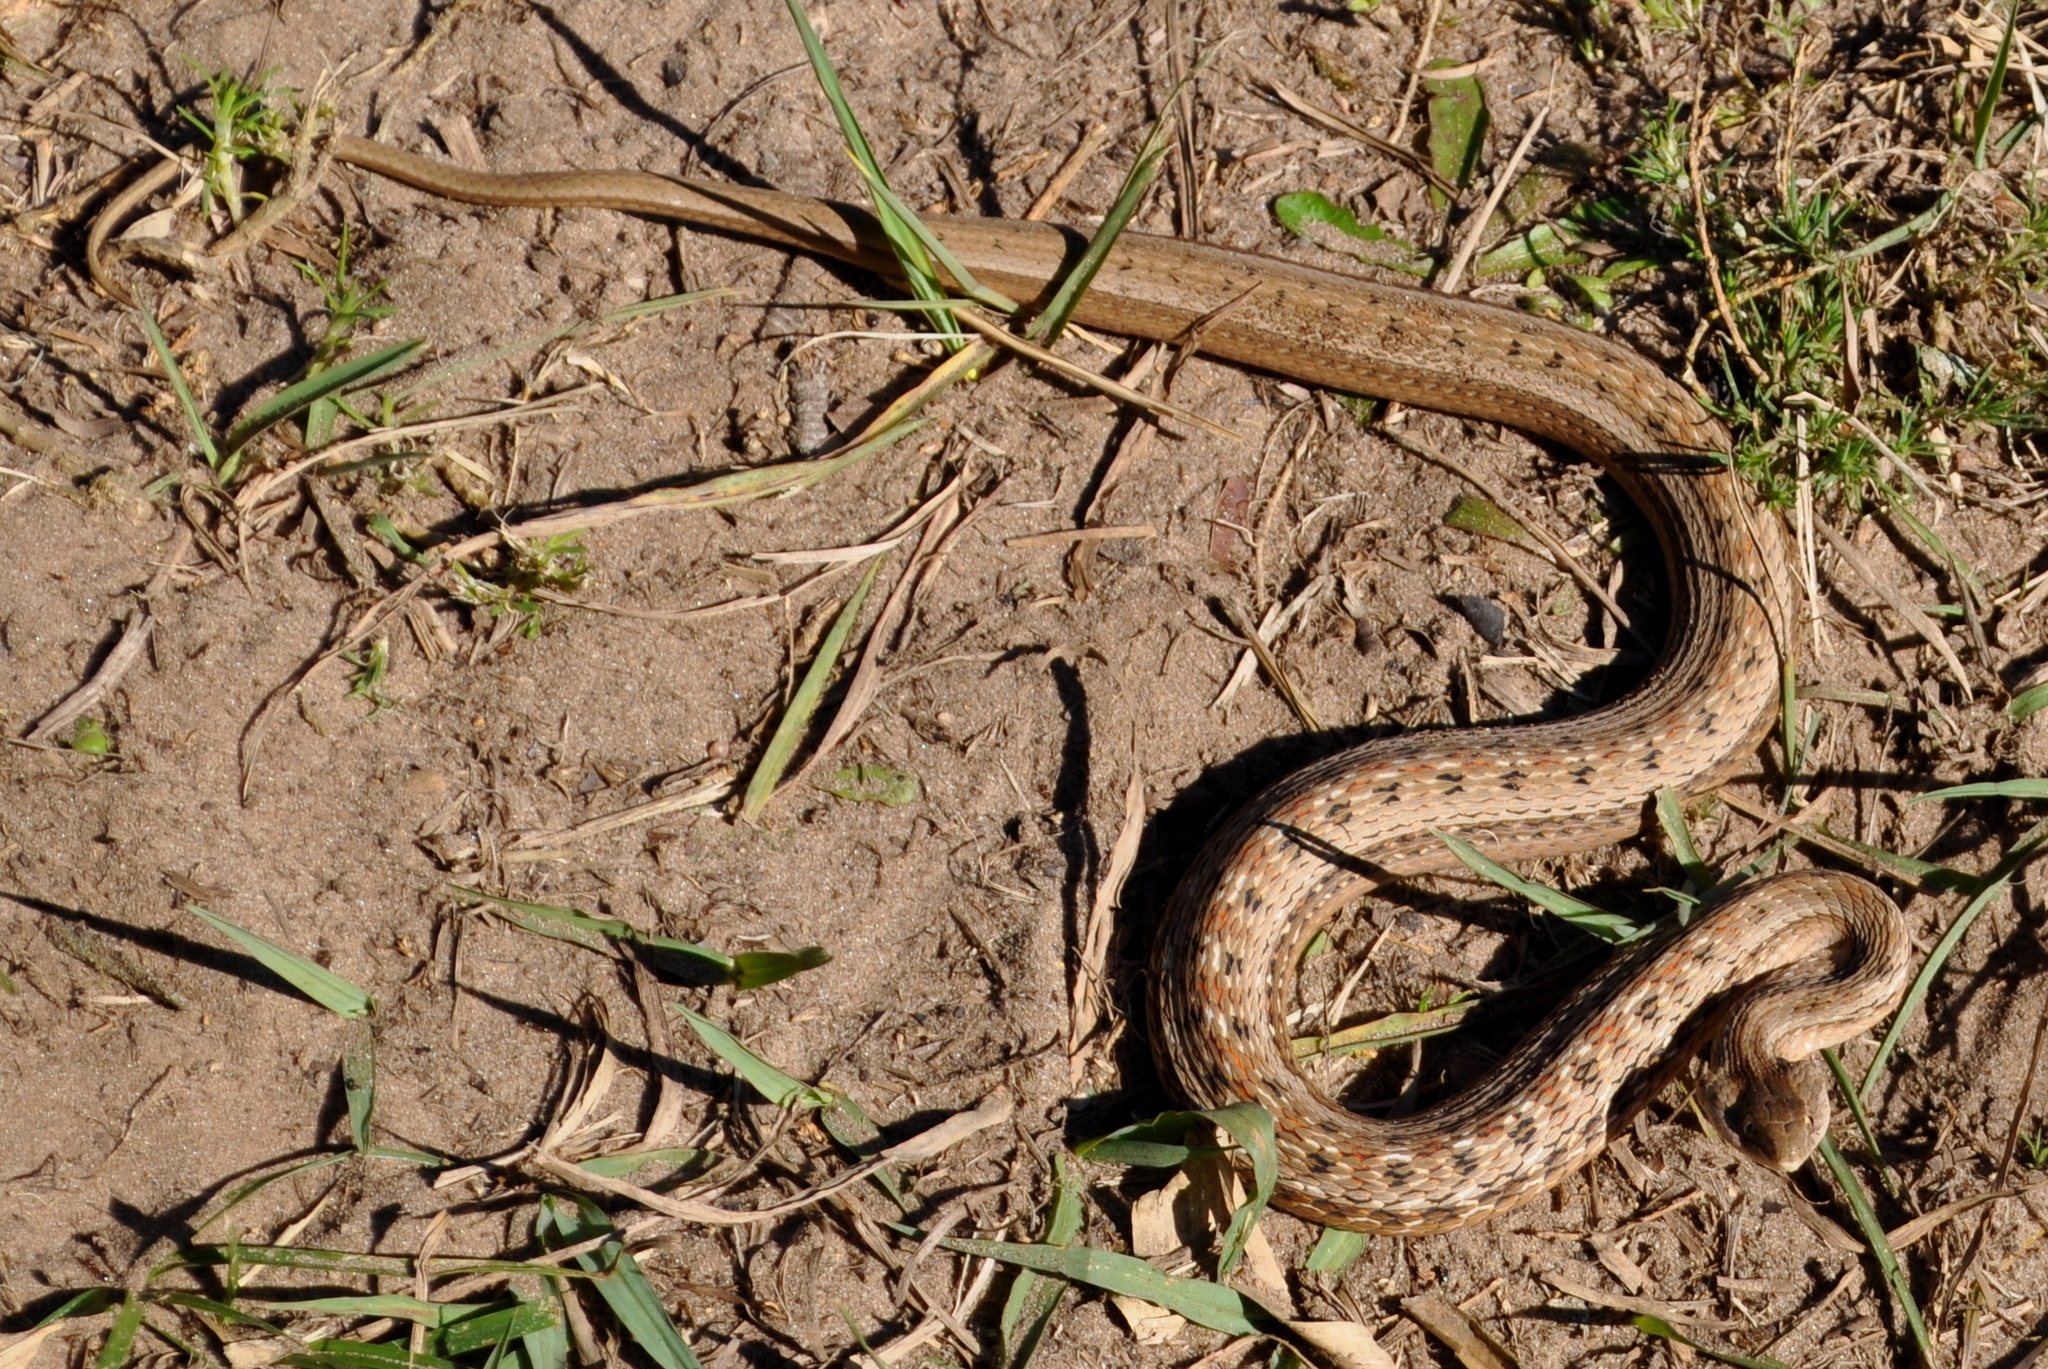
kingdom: Animalia
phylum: Chordata
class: Squamata
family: Colubridae
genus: Dryophylax
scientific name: Dryophylax
